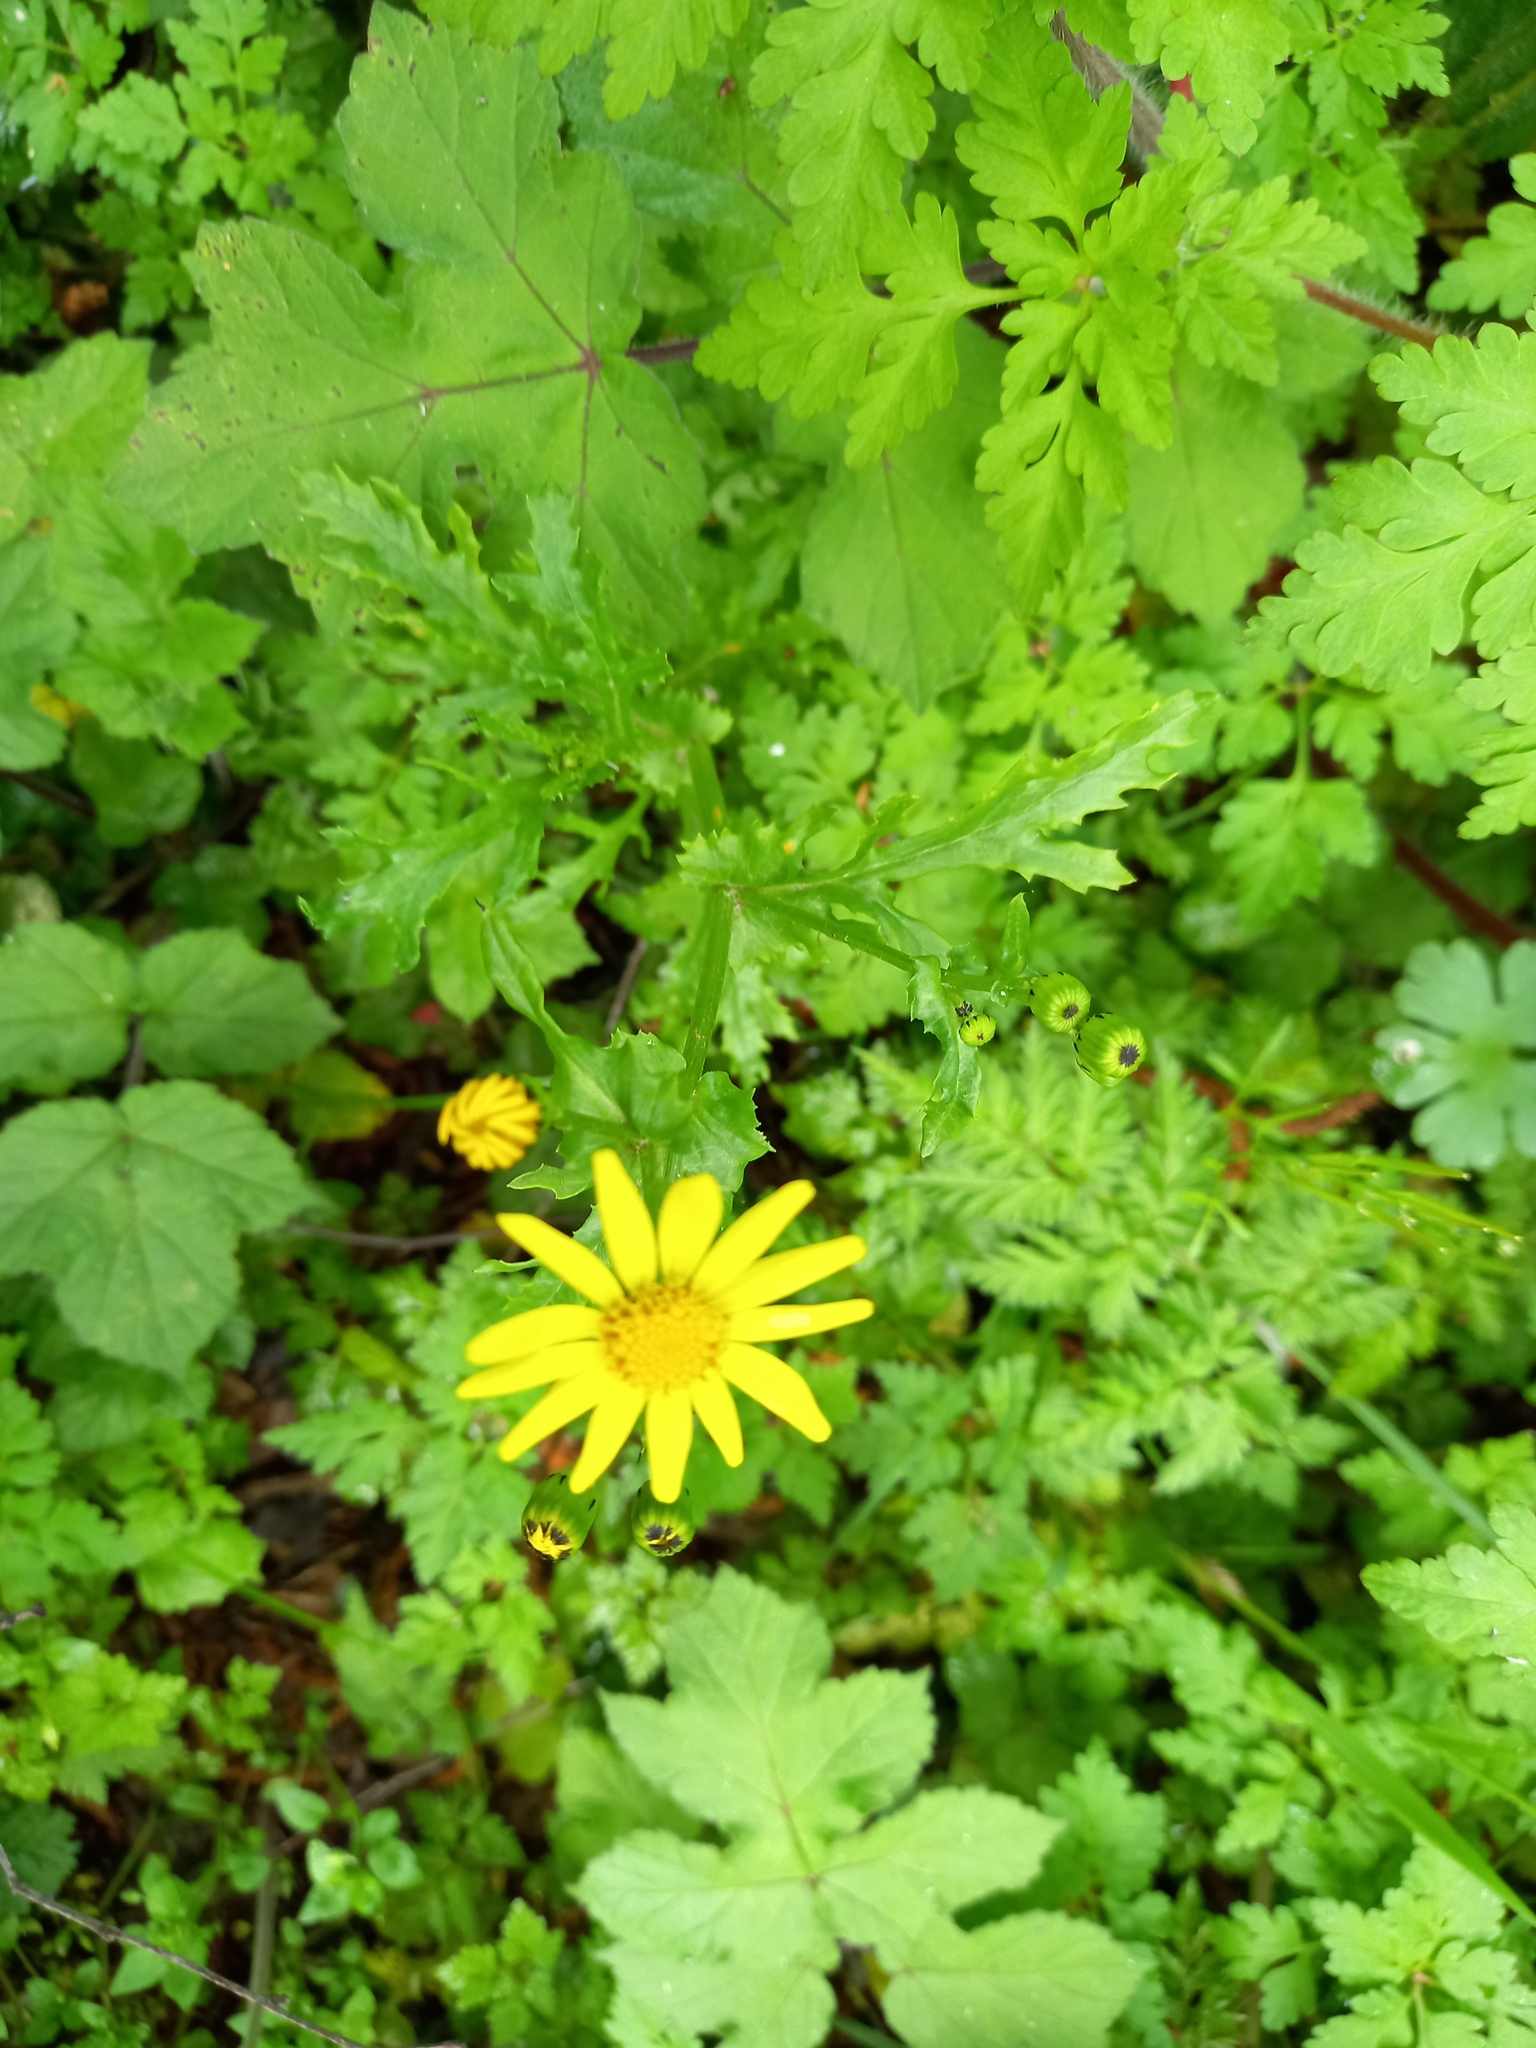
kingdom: Plantae
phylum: Tracheophyta
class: Magnoliopsida
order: Asterales
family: Asteraceae
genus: Jacobaea
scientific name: Jacobaea vulgaris
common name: Stinking willie
